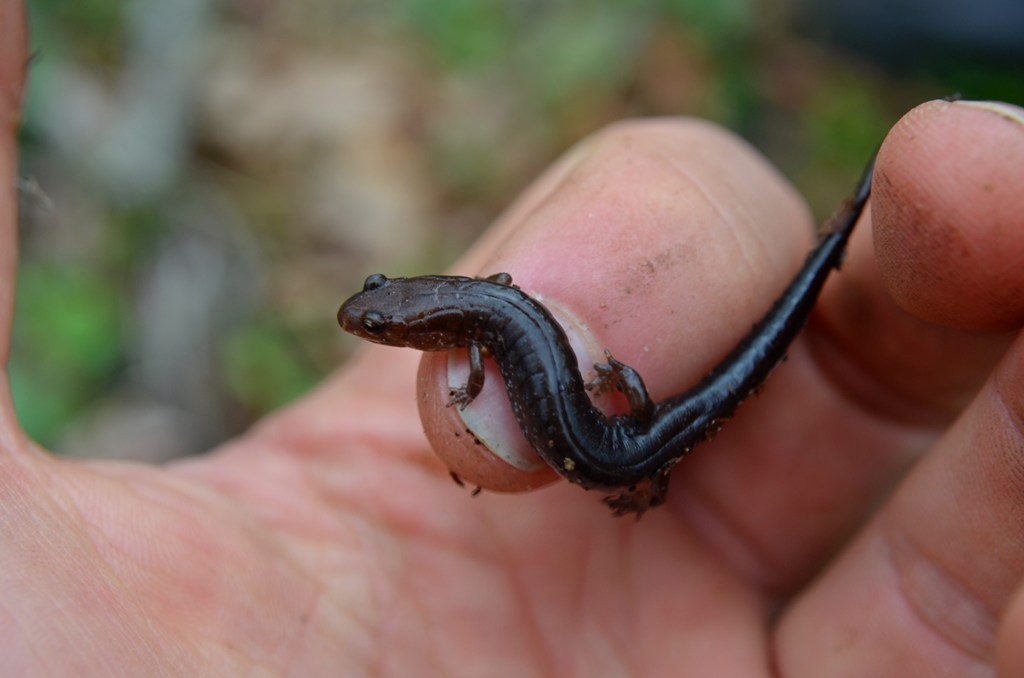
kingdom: Animalia
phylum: Chordata
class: Amphibia
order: Caudata
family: Plethodontidae
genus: Desmognathus
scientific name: Desmognathus carolinensis
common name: Carolina mountain dusky salamander
